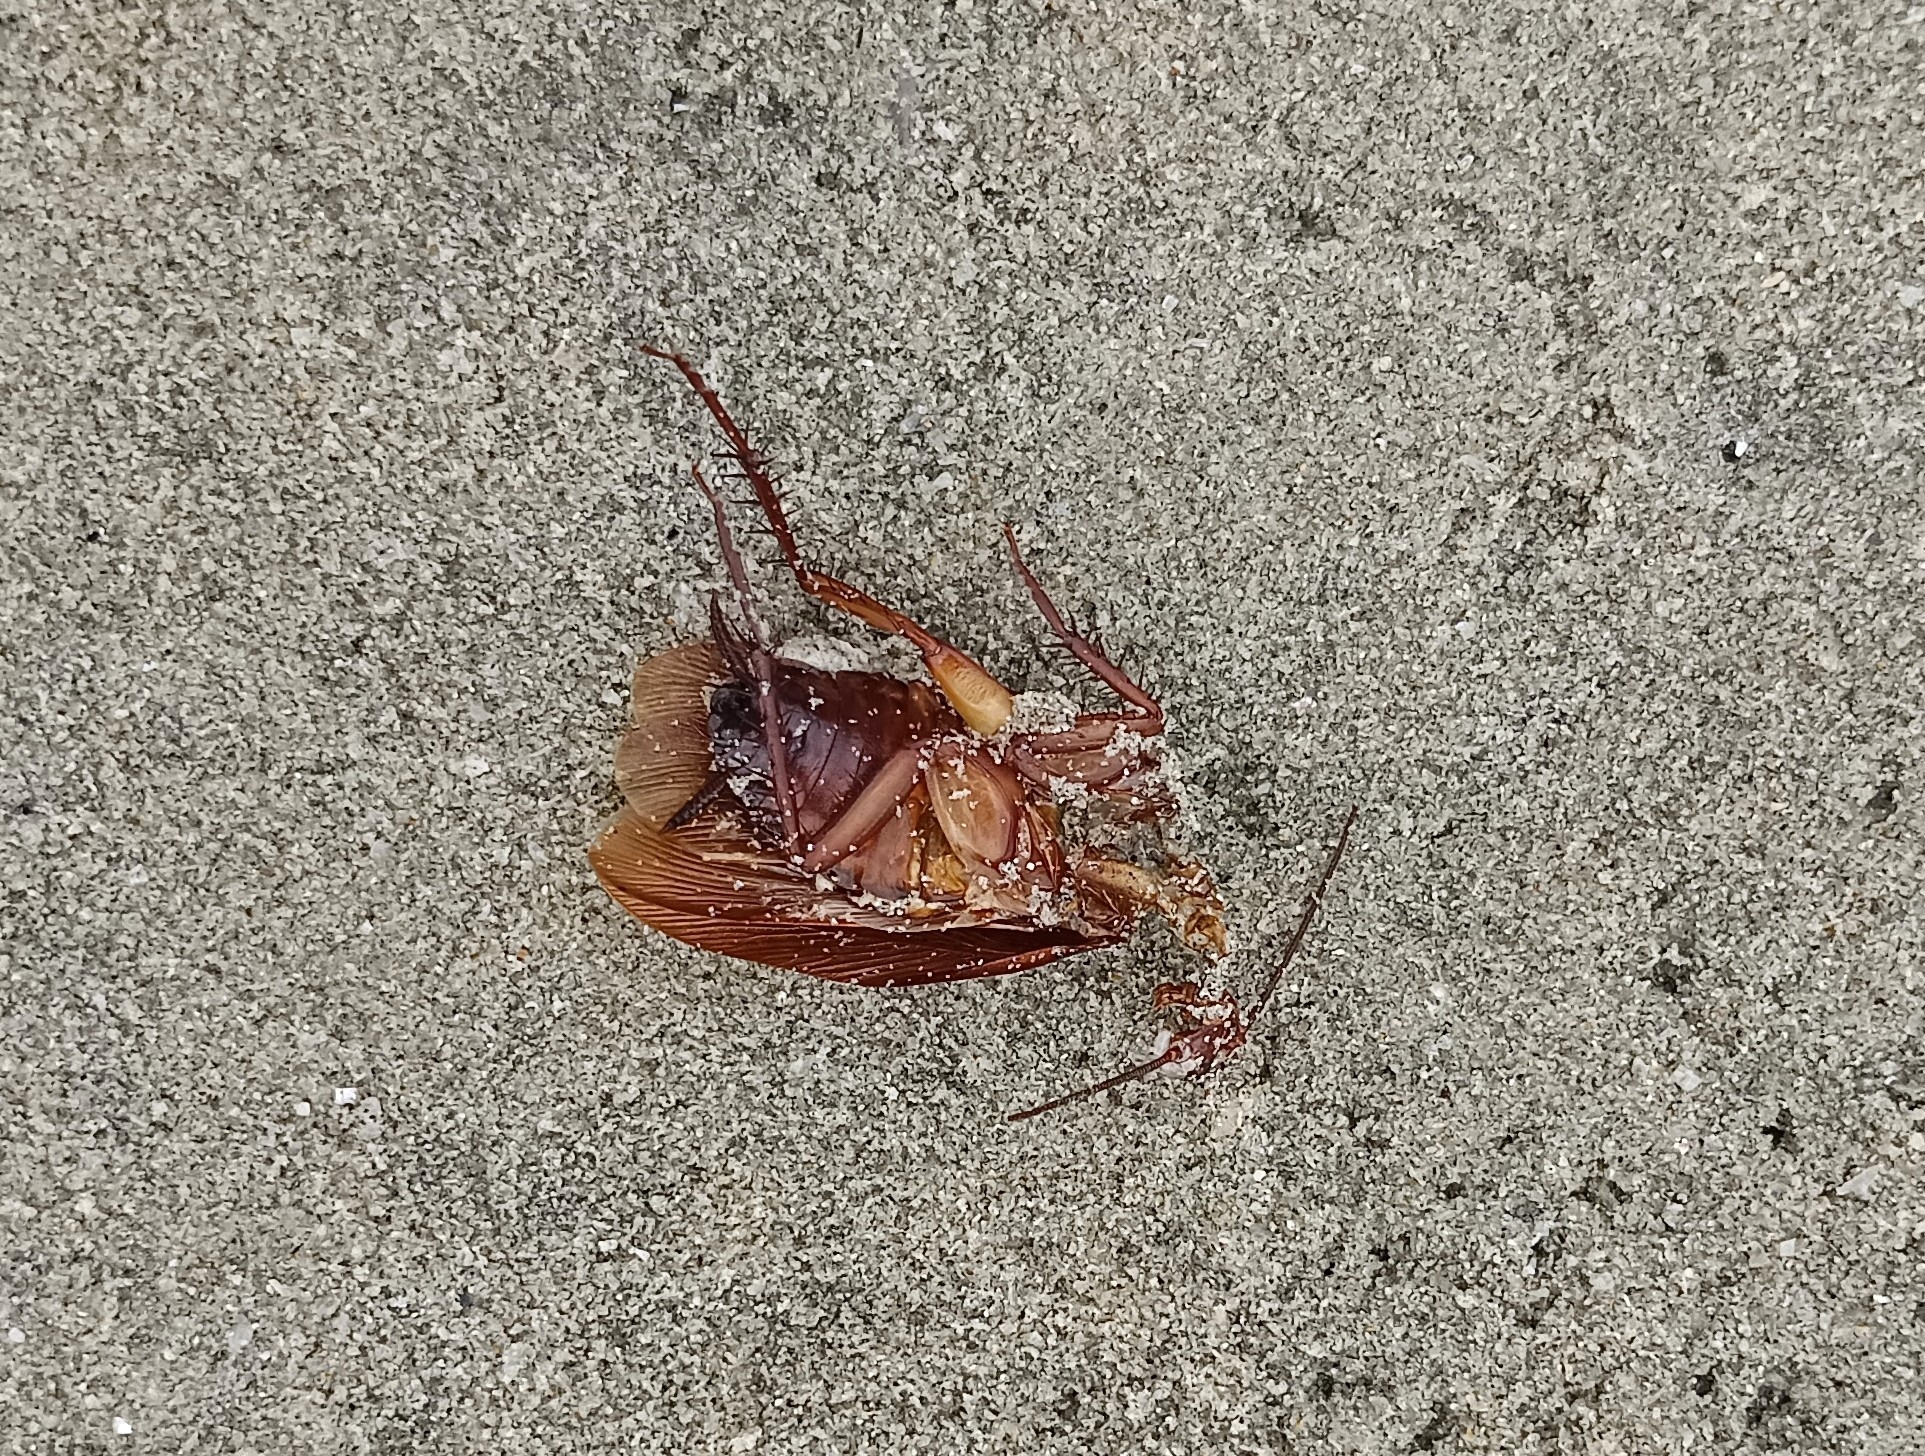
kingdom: Animalia
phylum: Arthropoda
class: Insecta
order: Blattodea
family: Blattidae
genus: Periplaneta
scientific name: Periplaneta americana
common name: American cockroach
